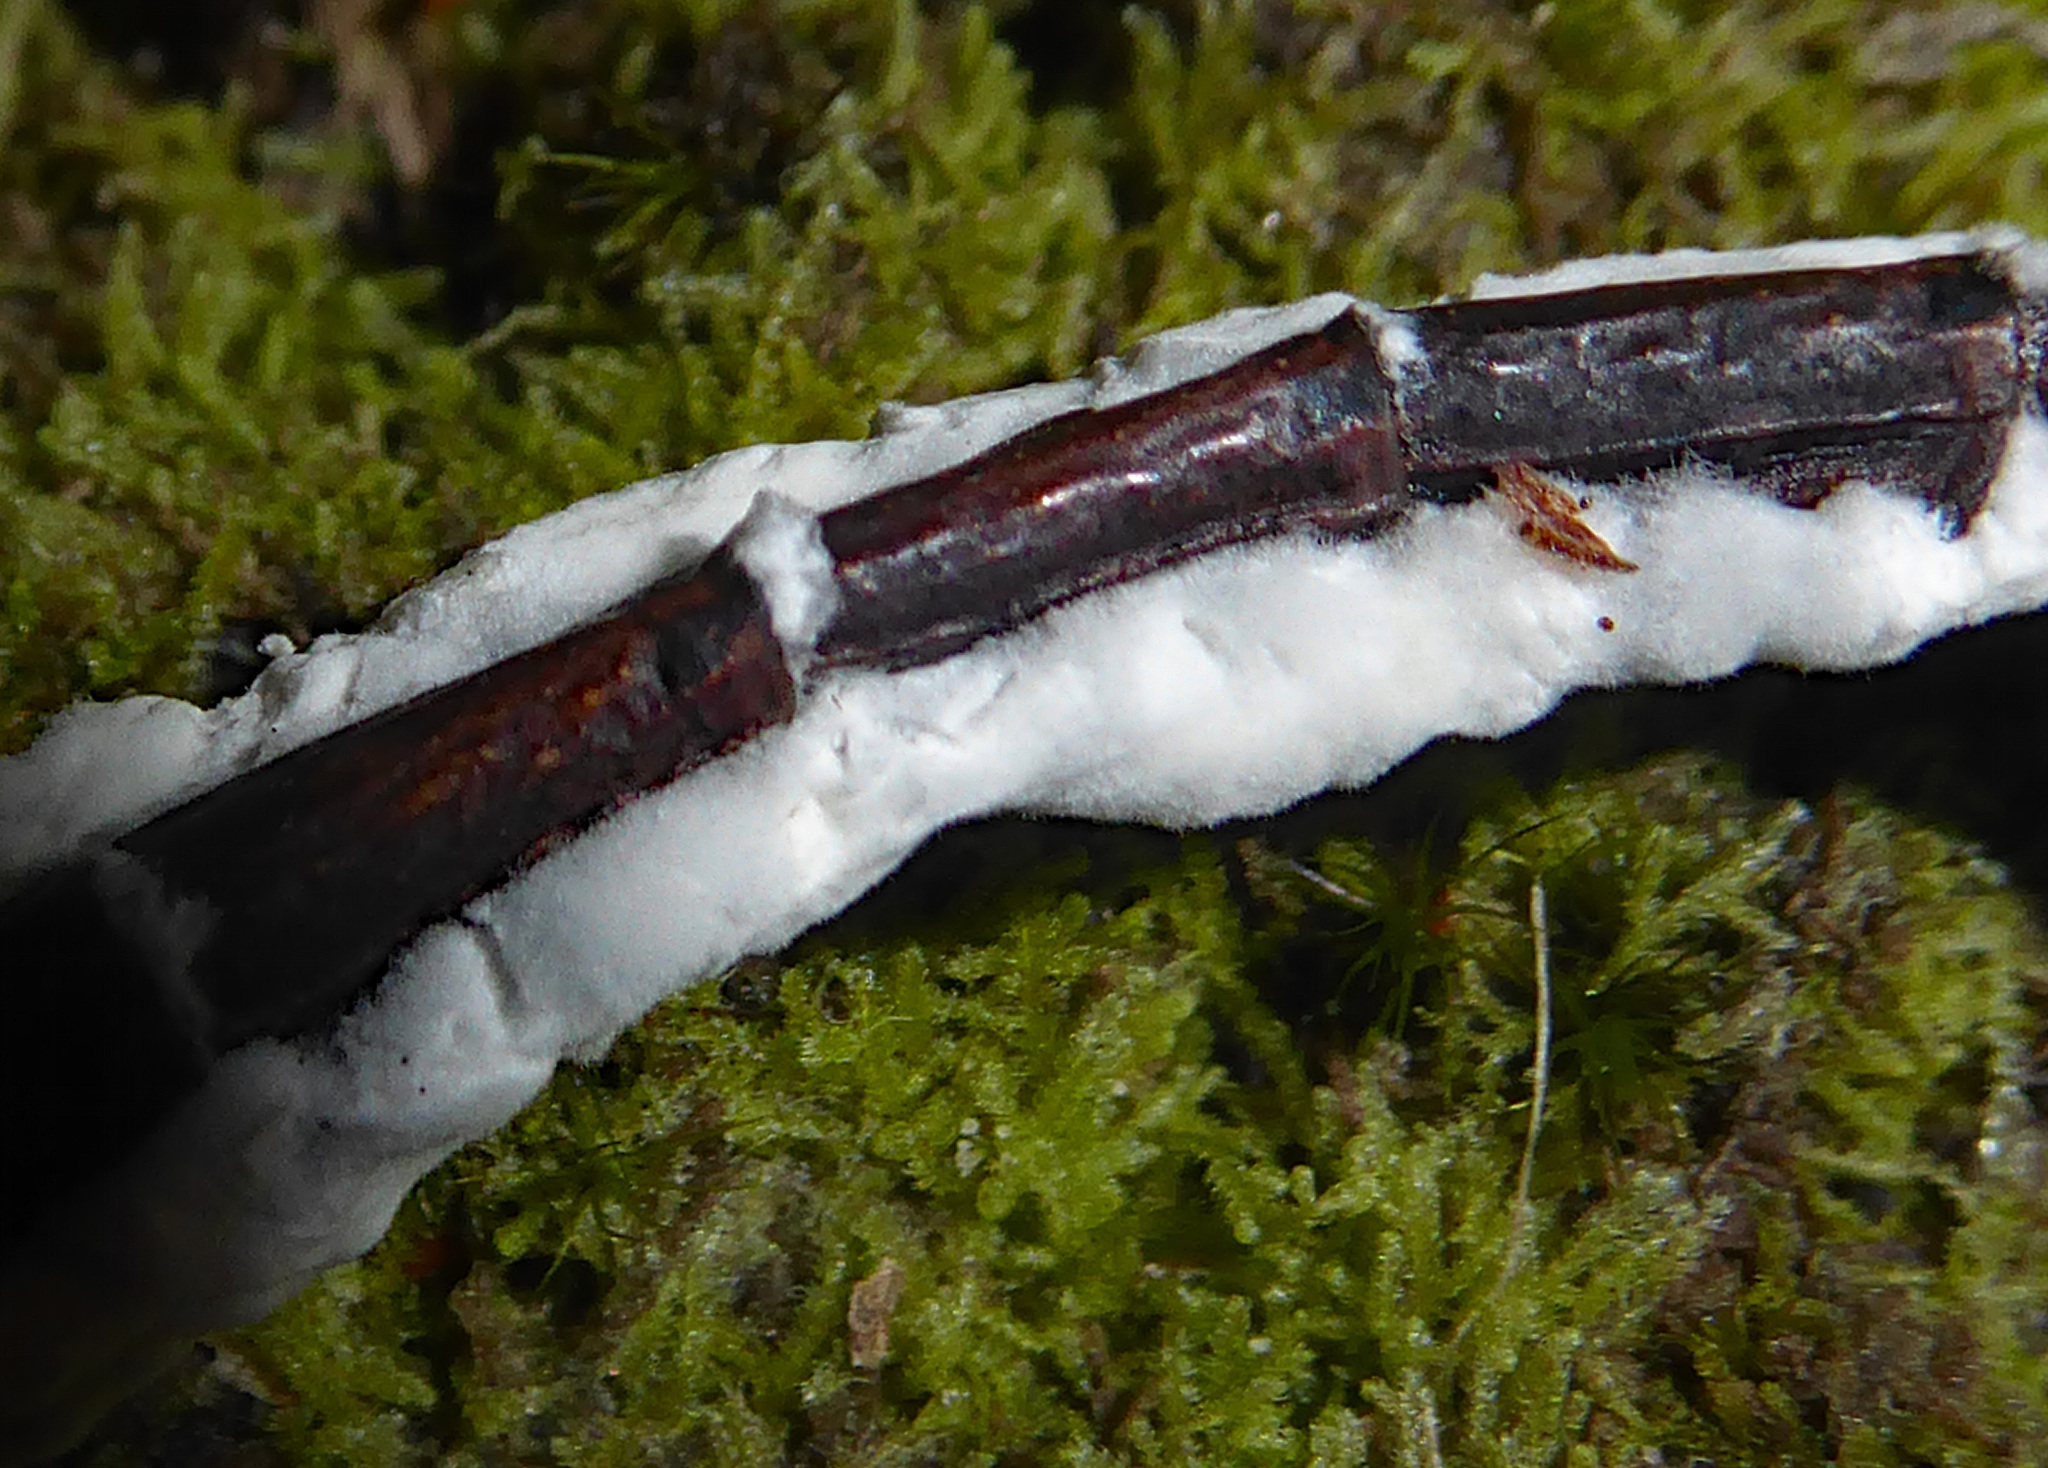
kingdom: Fungi
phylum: Ascomycota
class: Sordariomycetes
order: Hypocreales
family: Cordycipitaceae
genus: Beauveria
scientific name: Beauveria bassiana
